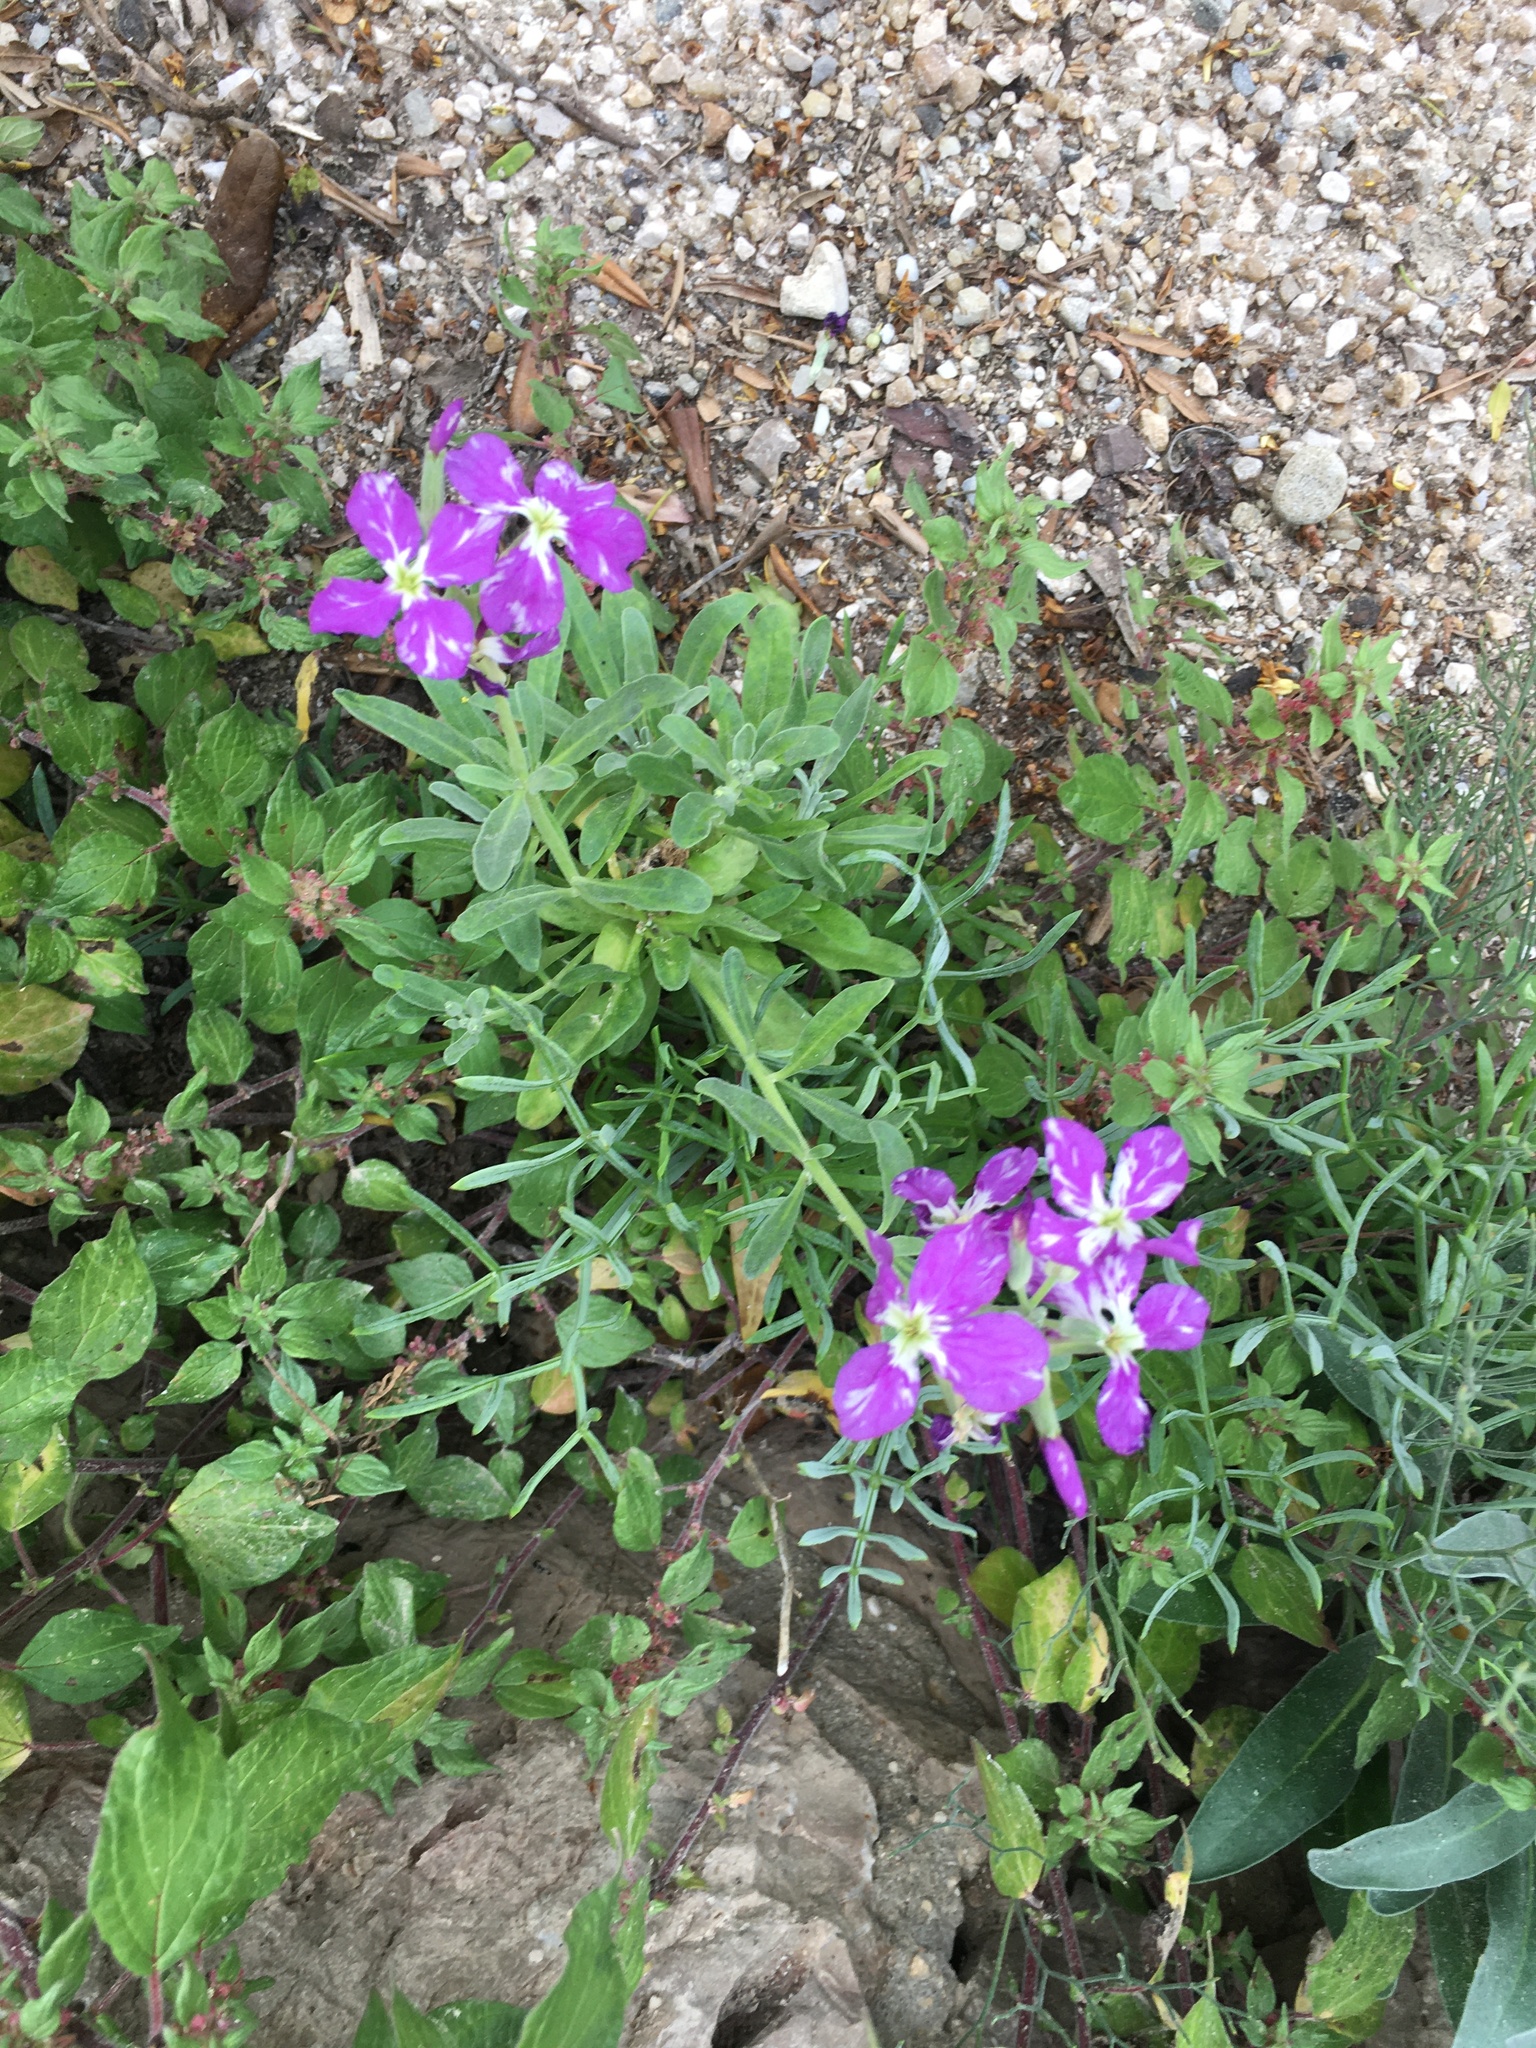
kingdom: Plantae
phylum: Tracheophyta
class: Magnoliopsida
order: Brassicales
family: Brassicaceae
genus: Matthiola
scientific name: Matthiola incana
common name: Hoary stock
